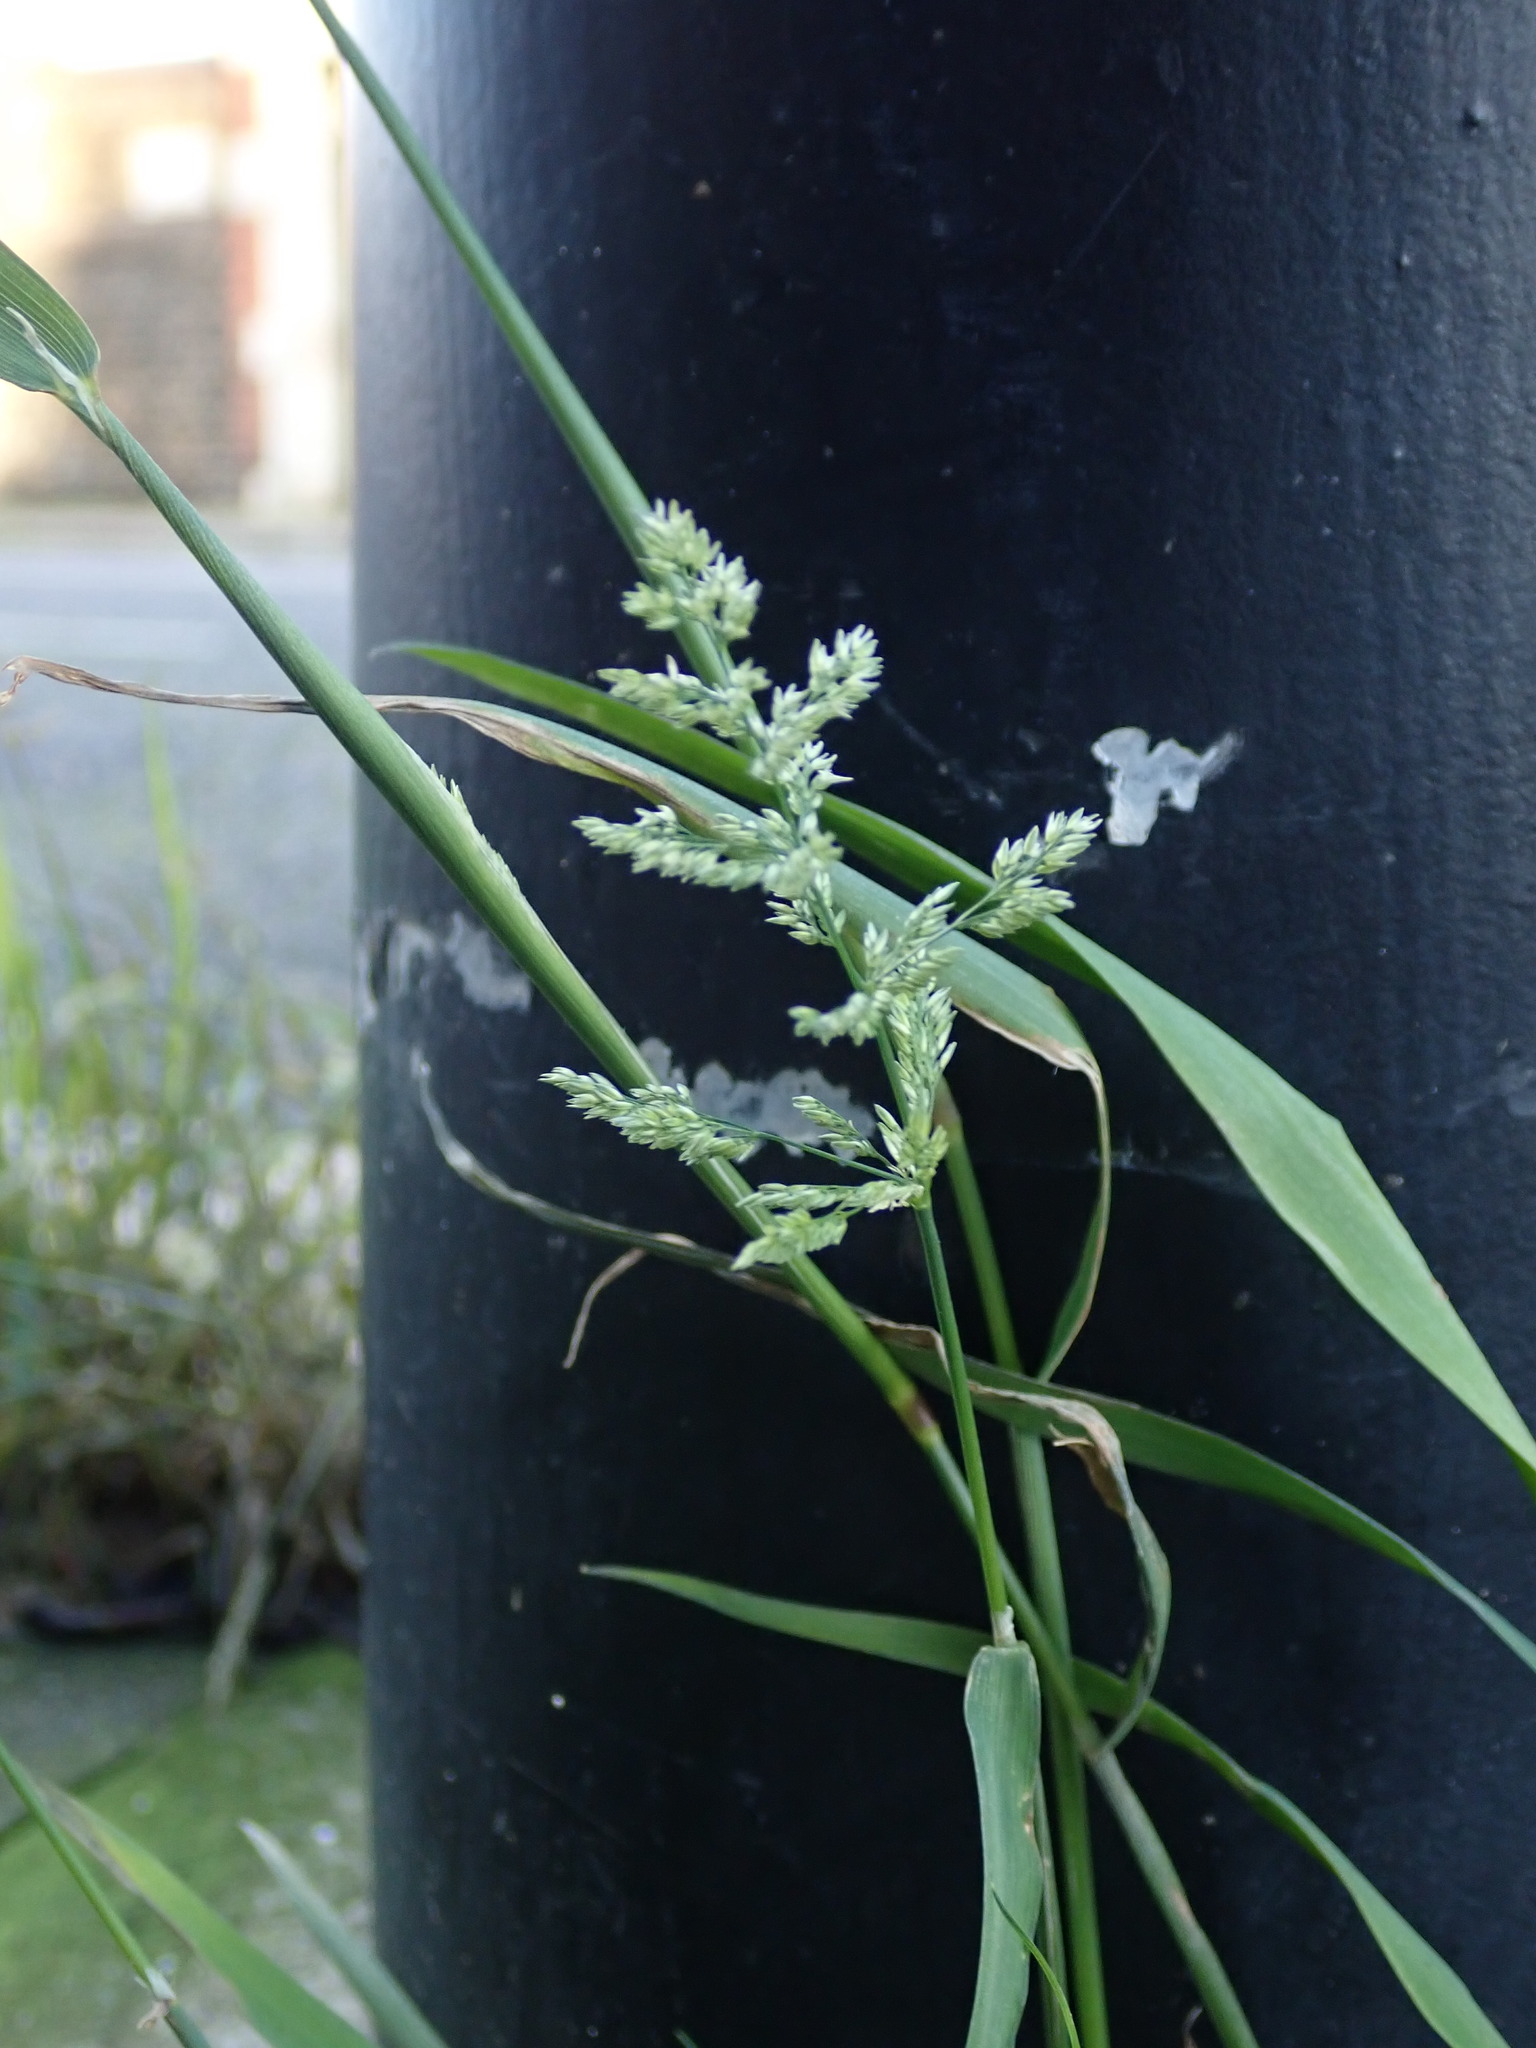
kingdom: Plantae
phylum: Tracheophyta
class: Liliopsida
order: Poales
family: Poaceae
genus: Polypogon
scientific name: Polypogon viridis
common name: Water bent
